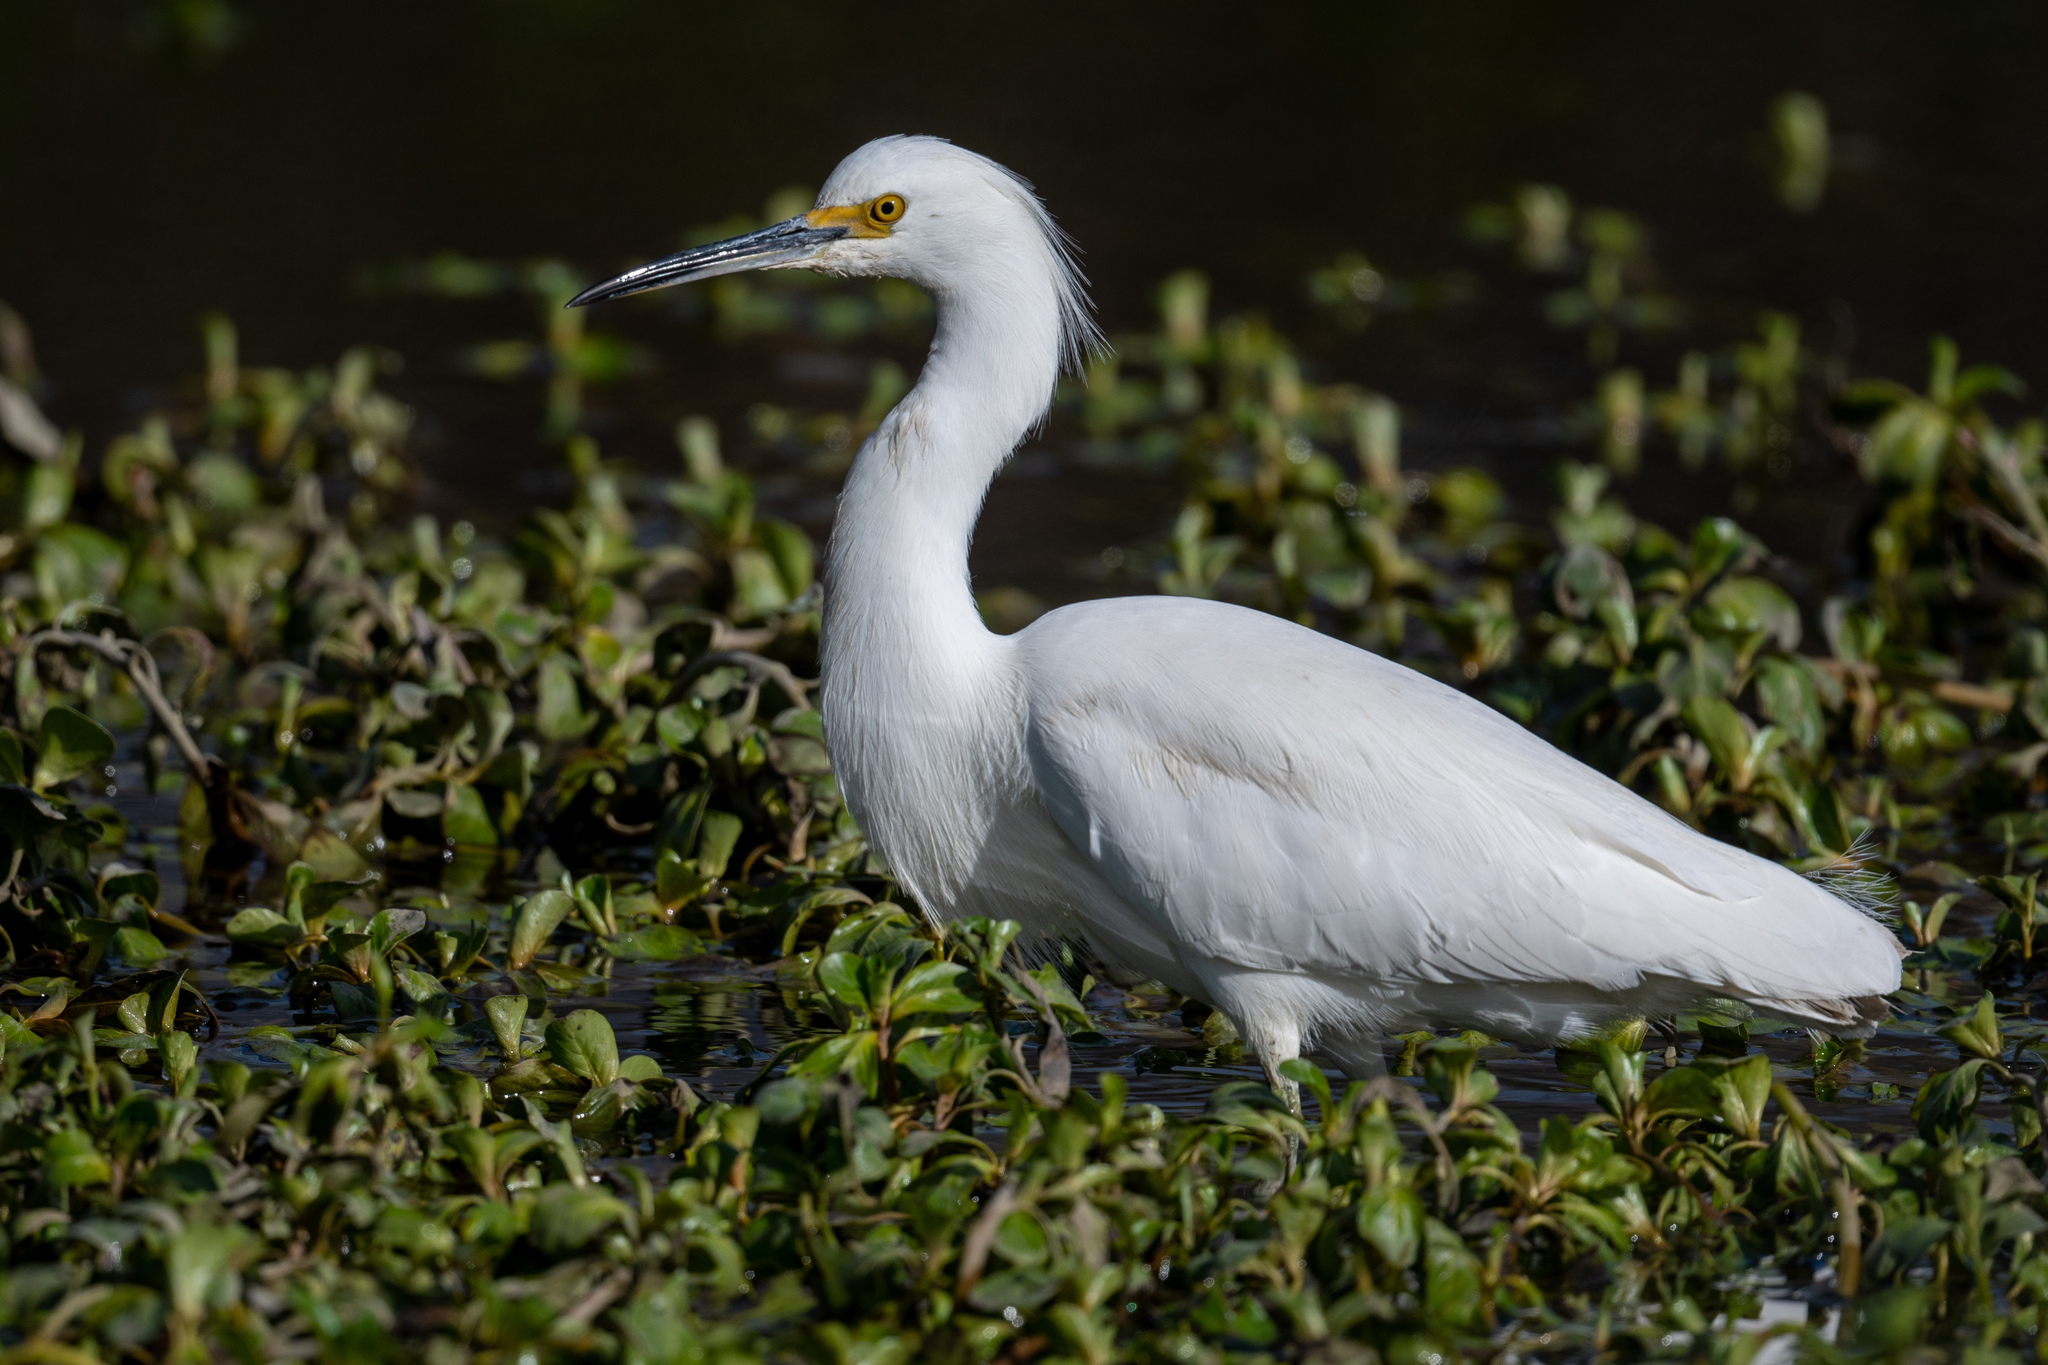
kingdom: Animalia
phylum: Chordata
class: Aves
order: Pelecaniformes
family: Ardeidae
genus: Egretta
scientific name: Egretta thula
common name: Snowy egret
